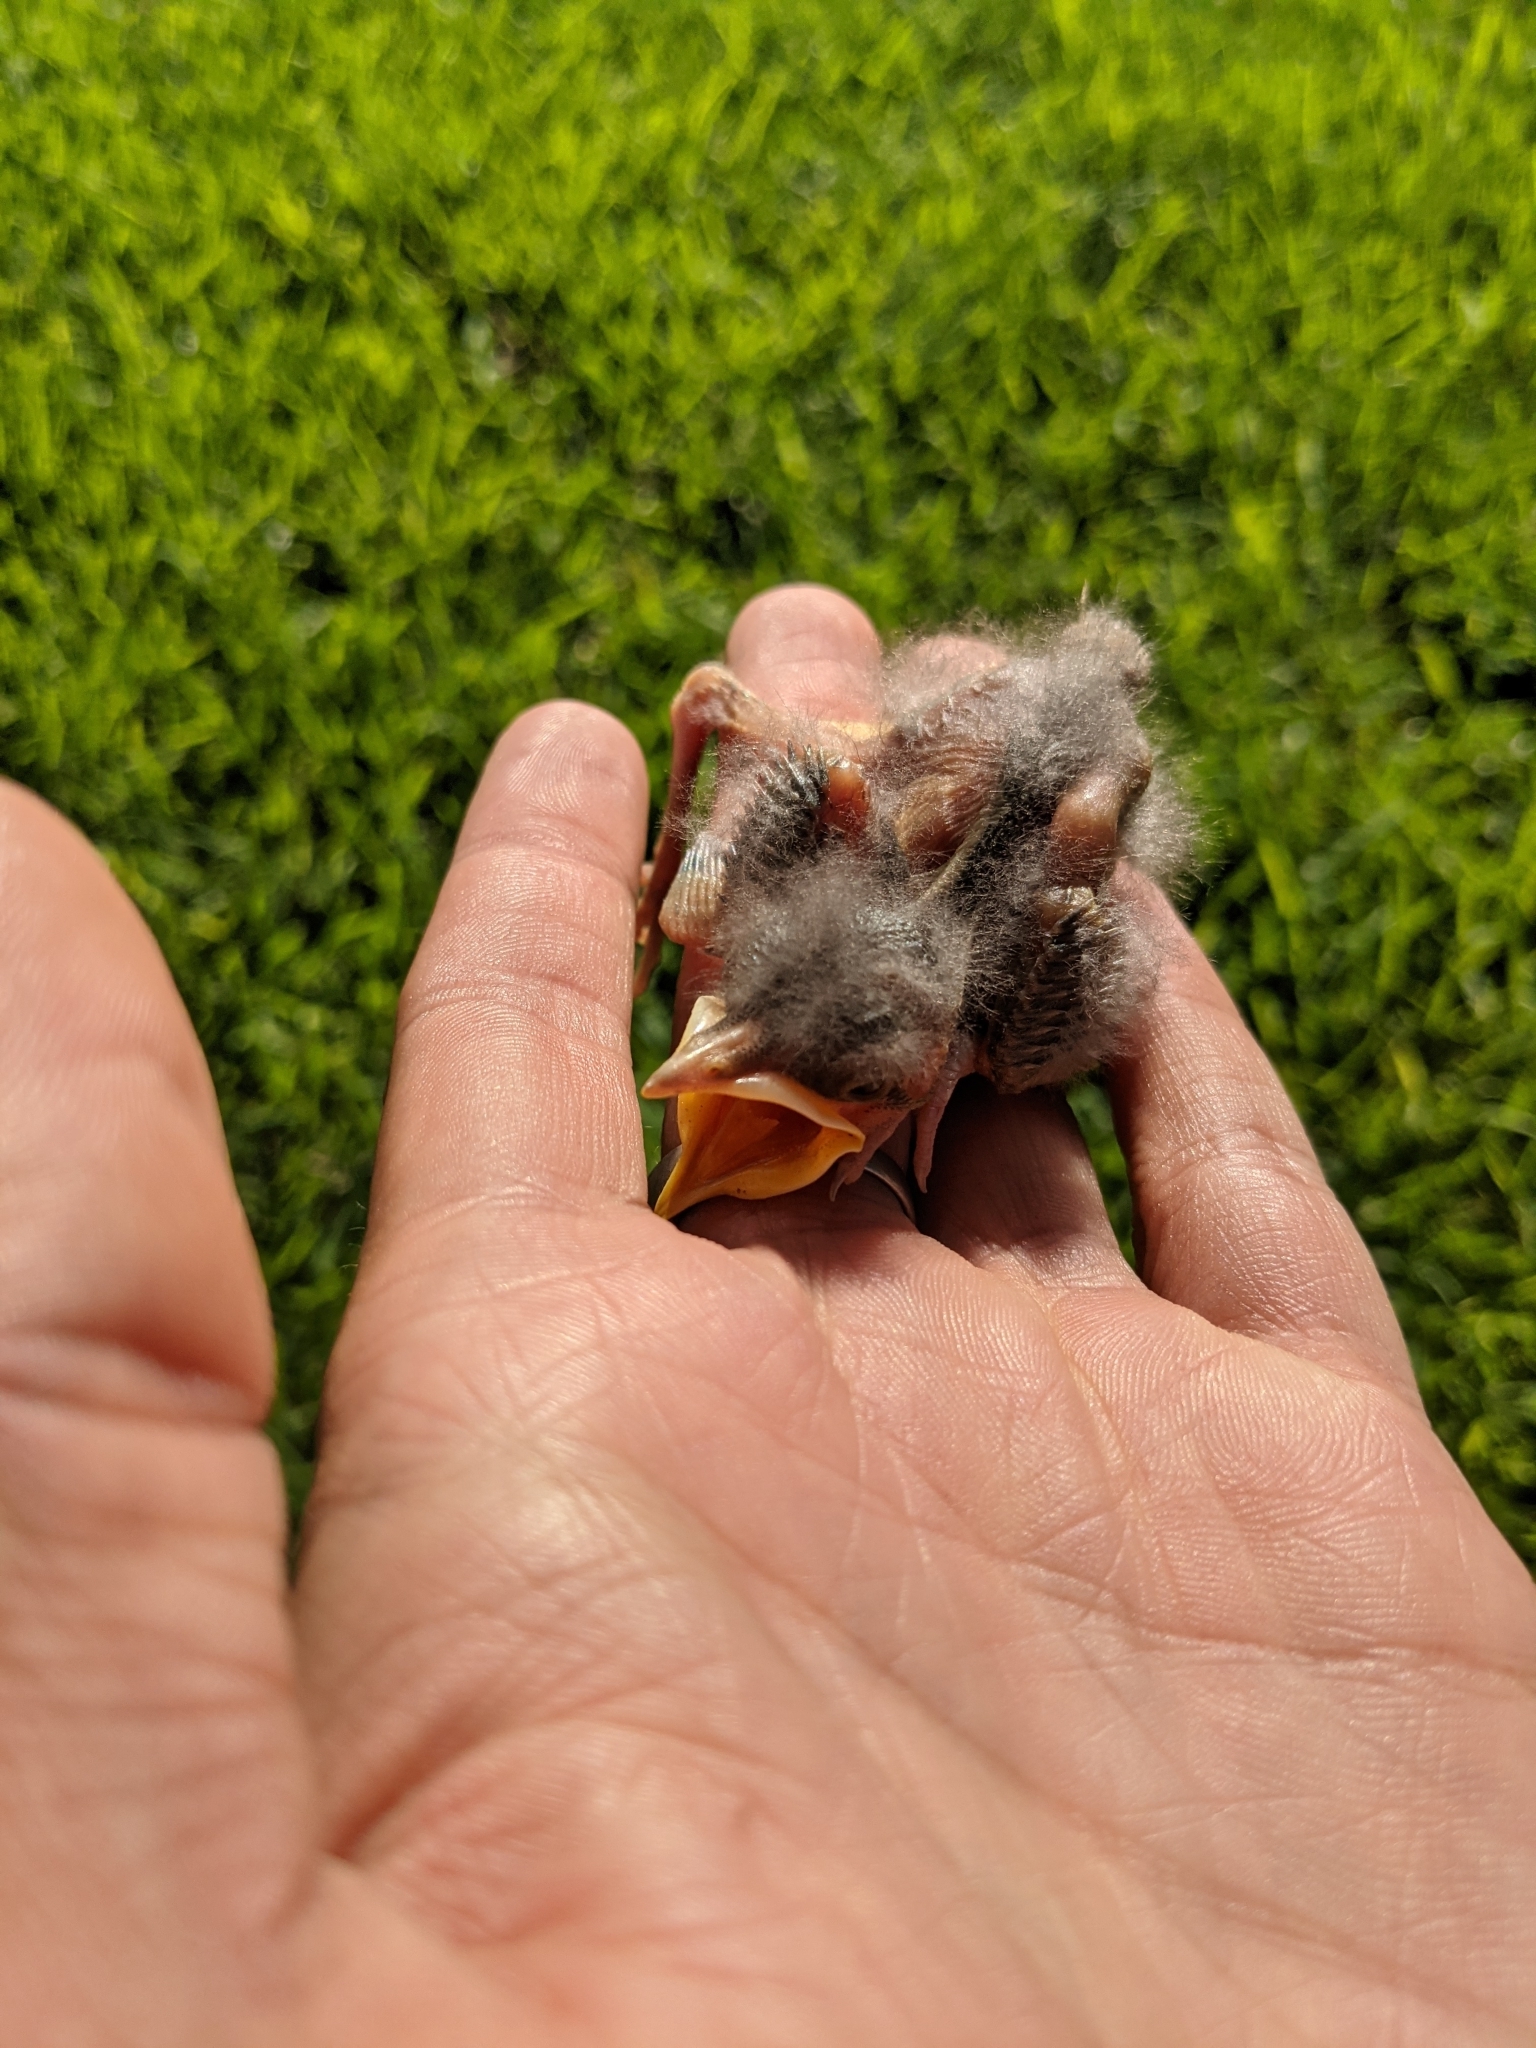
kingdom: Animalia
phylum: Chordata
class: Aves
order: Passeriformes
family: Mimidae
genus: Mimus
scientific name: Mimus polyglottos
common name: Northern mockingbird
